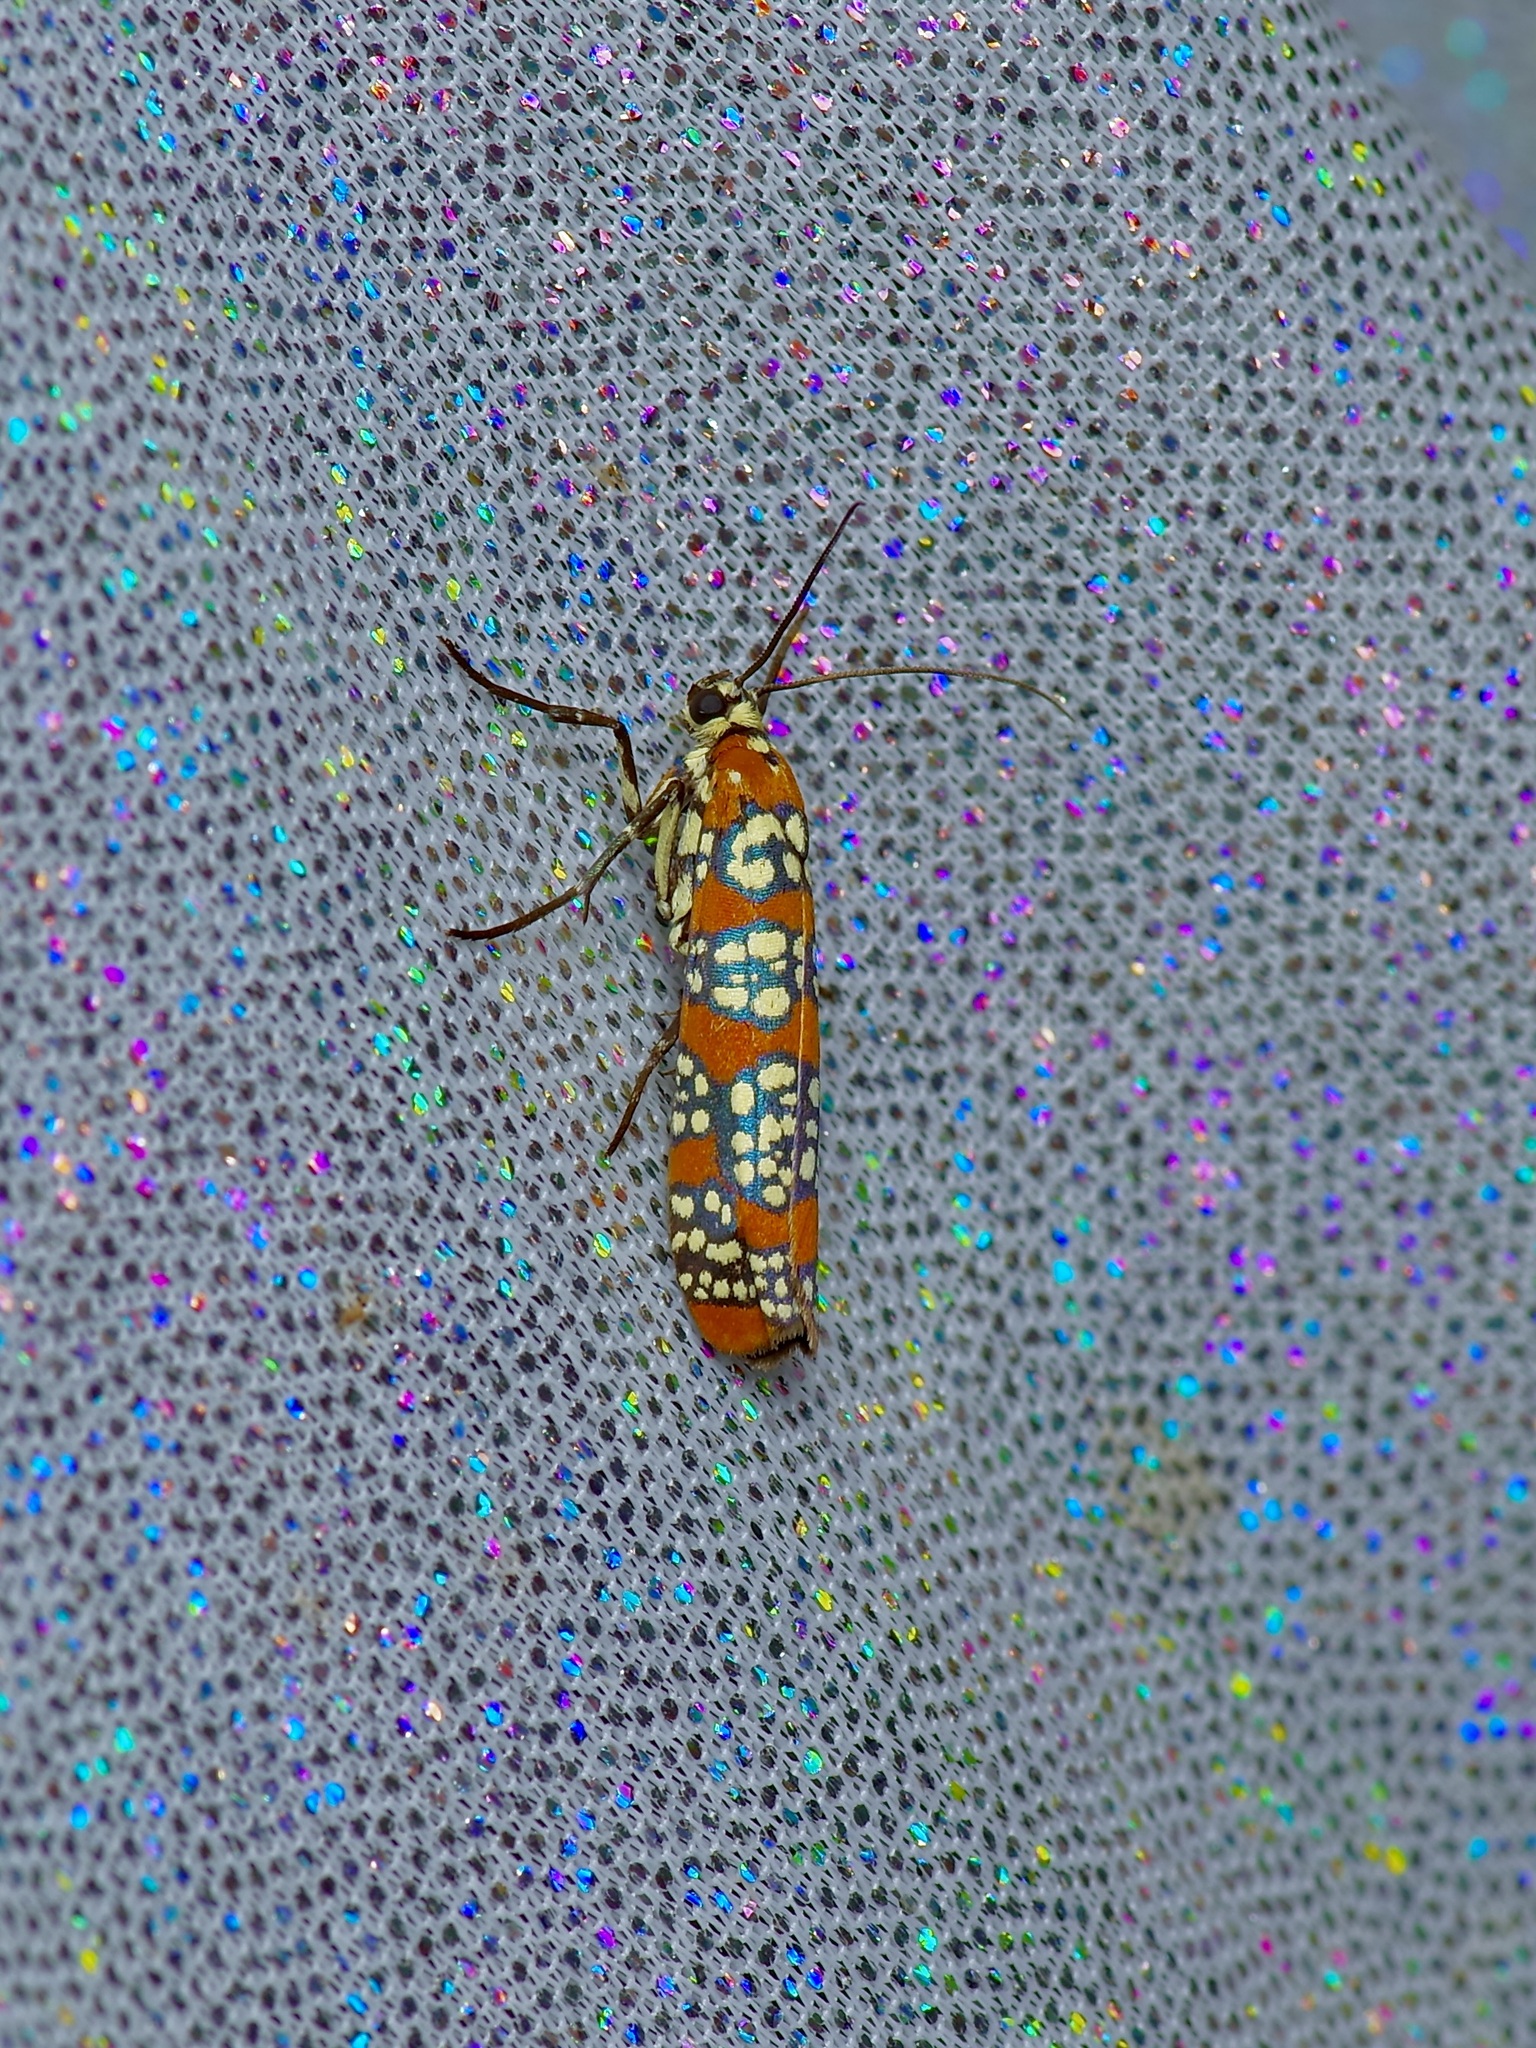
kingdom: Animalia
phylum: Arthropoda
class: Insecta
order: Lepidoptera
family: Attevidae
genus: Atteva
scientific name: Atteva punctella
